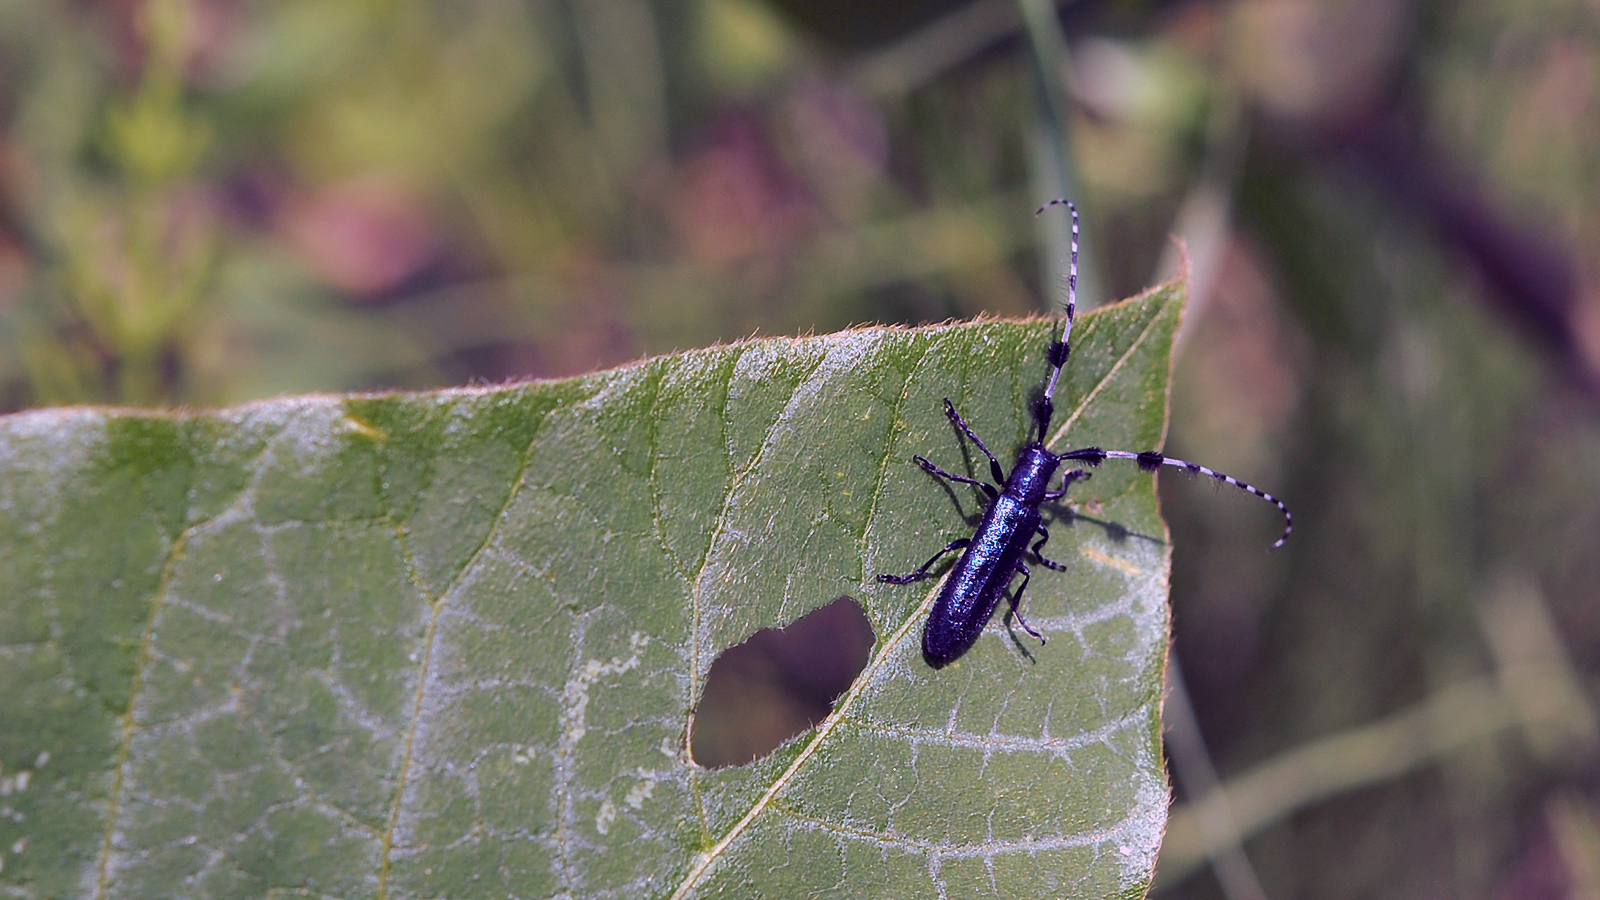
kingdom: Animalia
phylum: Arthropoda
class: Insecta
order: Coleoptera
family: Cerambycidae
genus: Agapanthia
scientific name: Agapanthia amurensis
